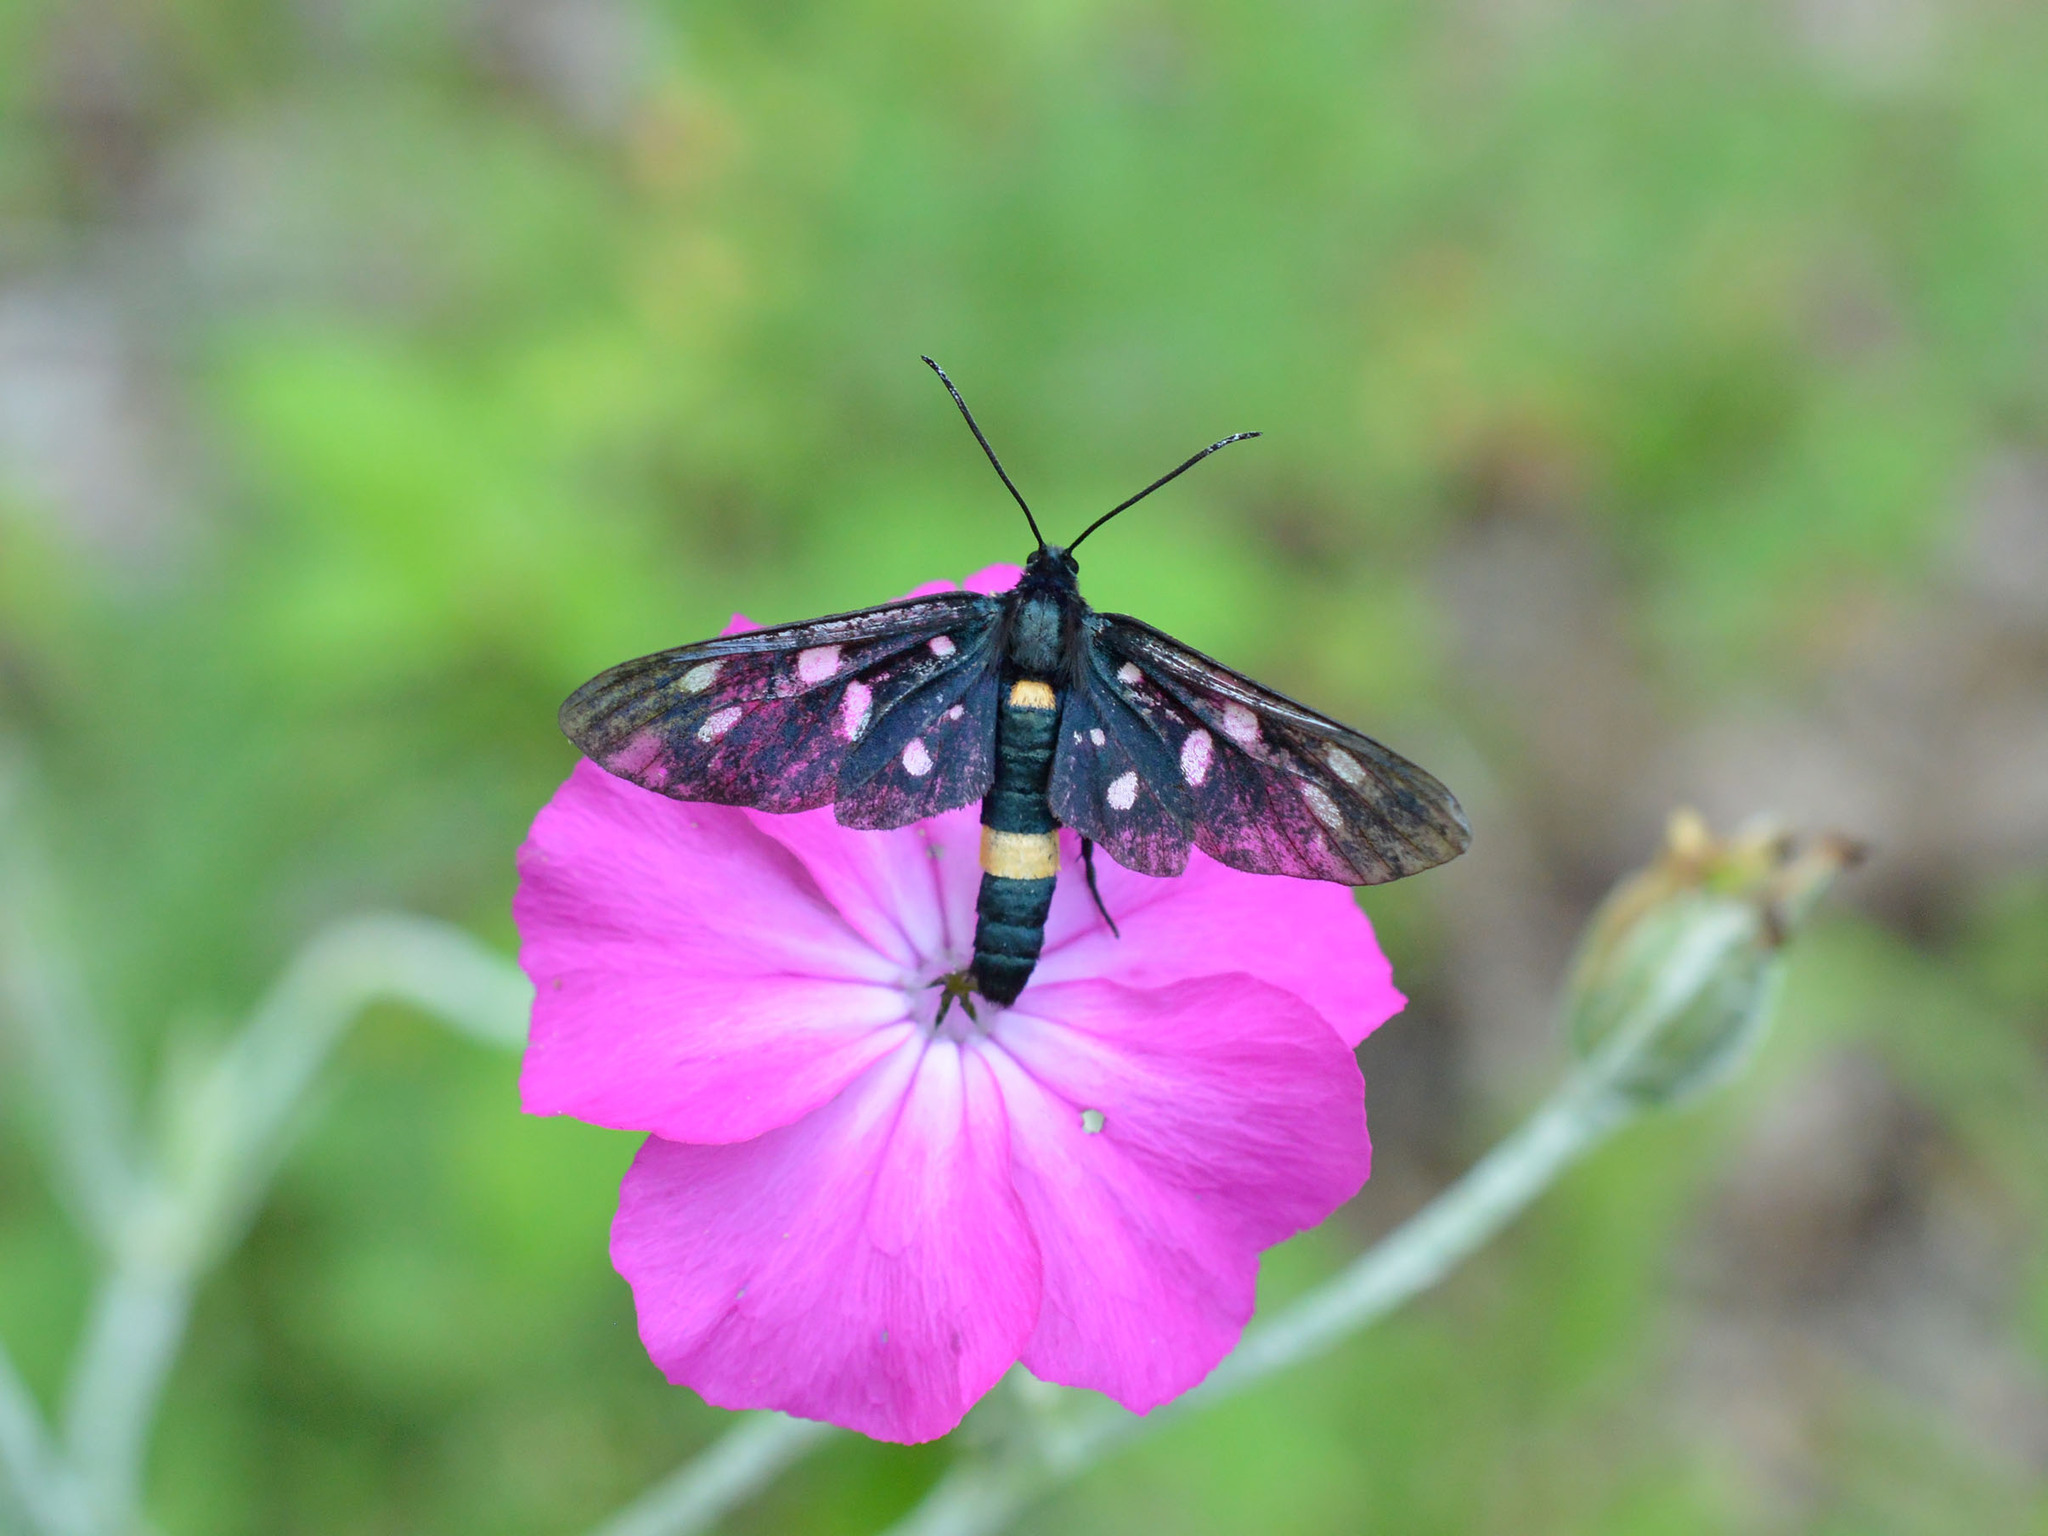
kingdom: Animalia
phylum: Arthropoda
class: Insecta
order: Lepidoptera
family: Erebidae
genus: Amata
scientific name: Amata phegea
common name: Nine-spotted
